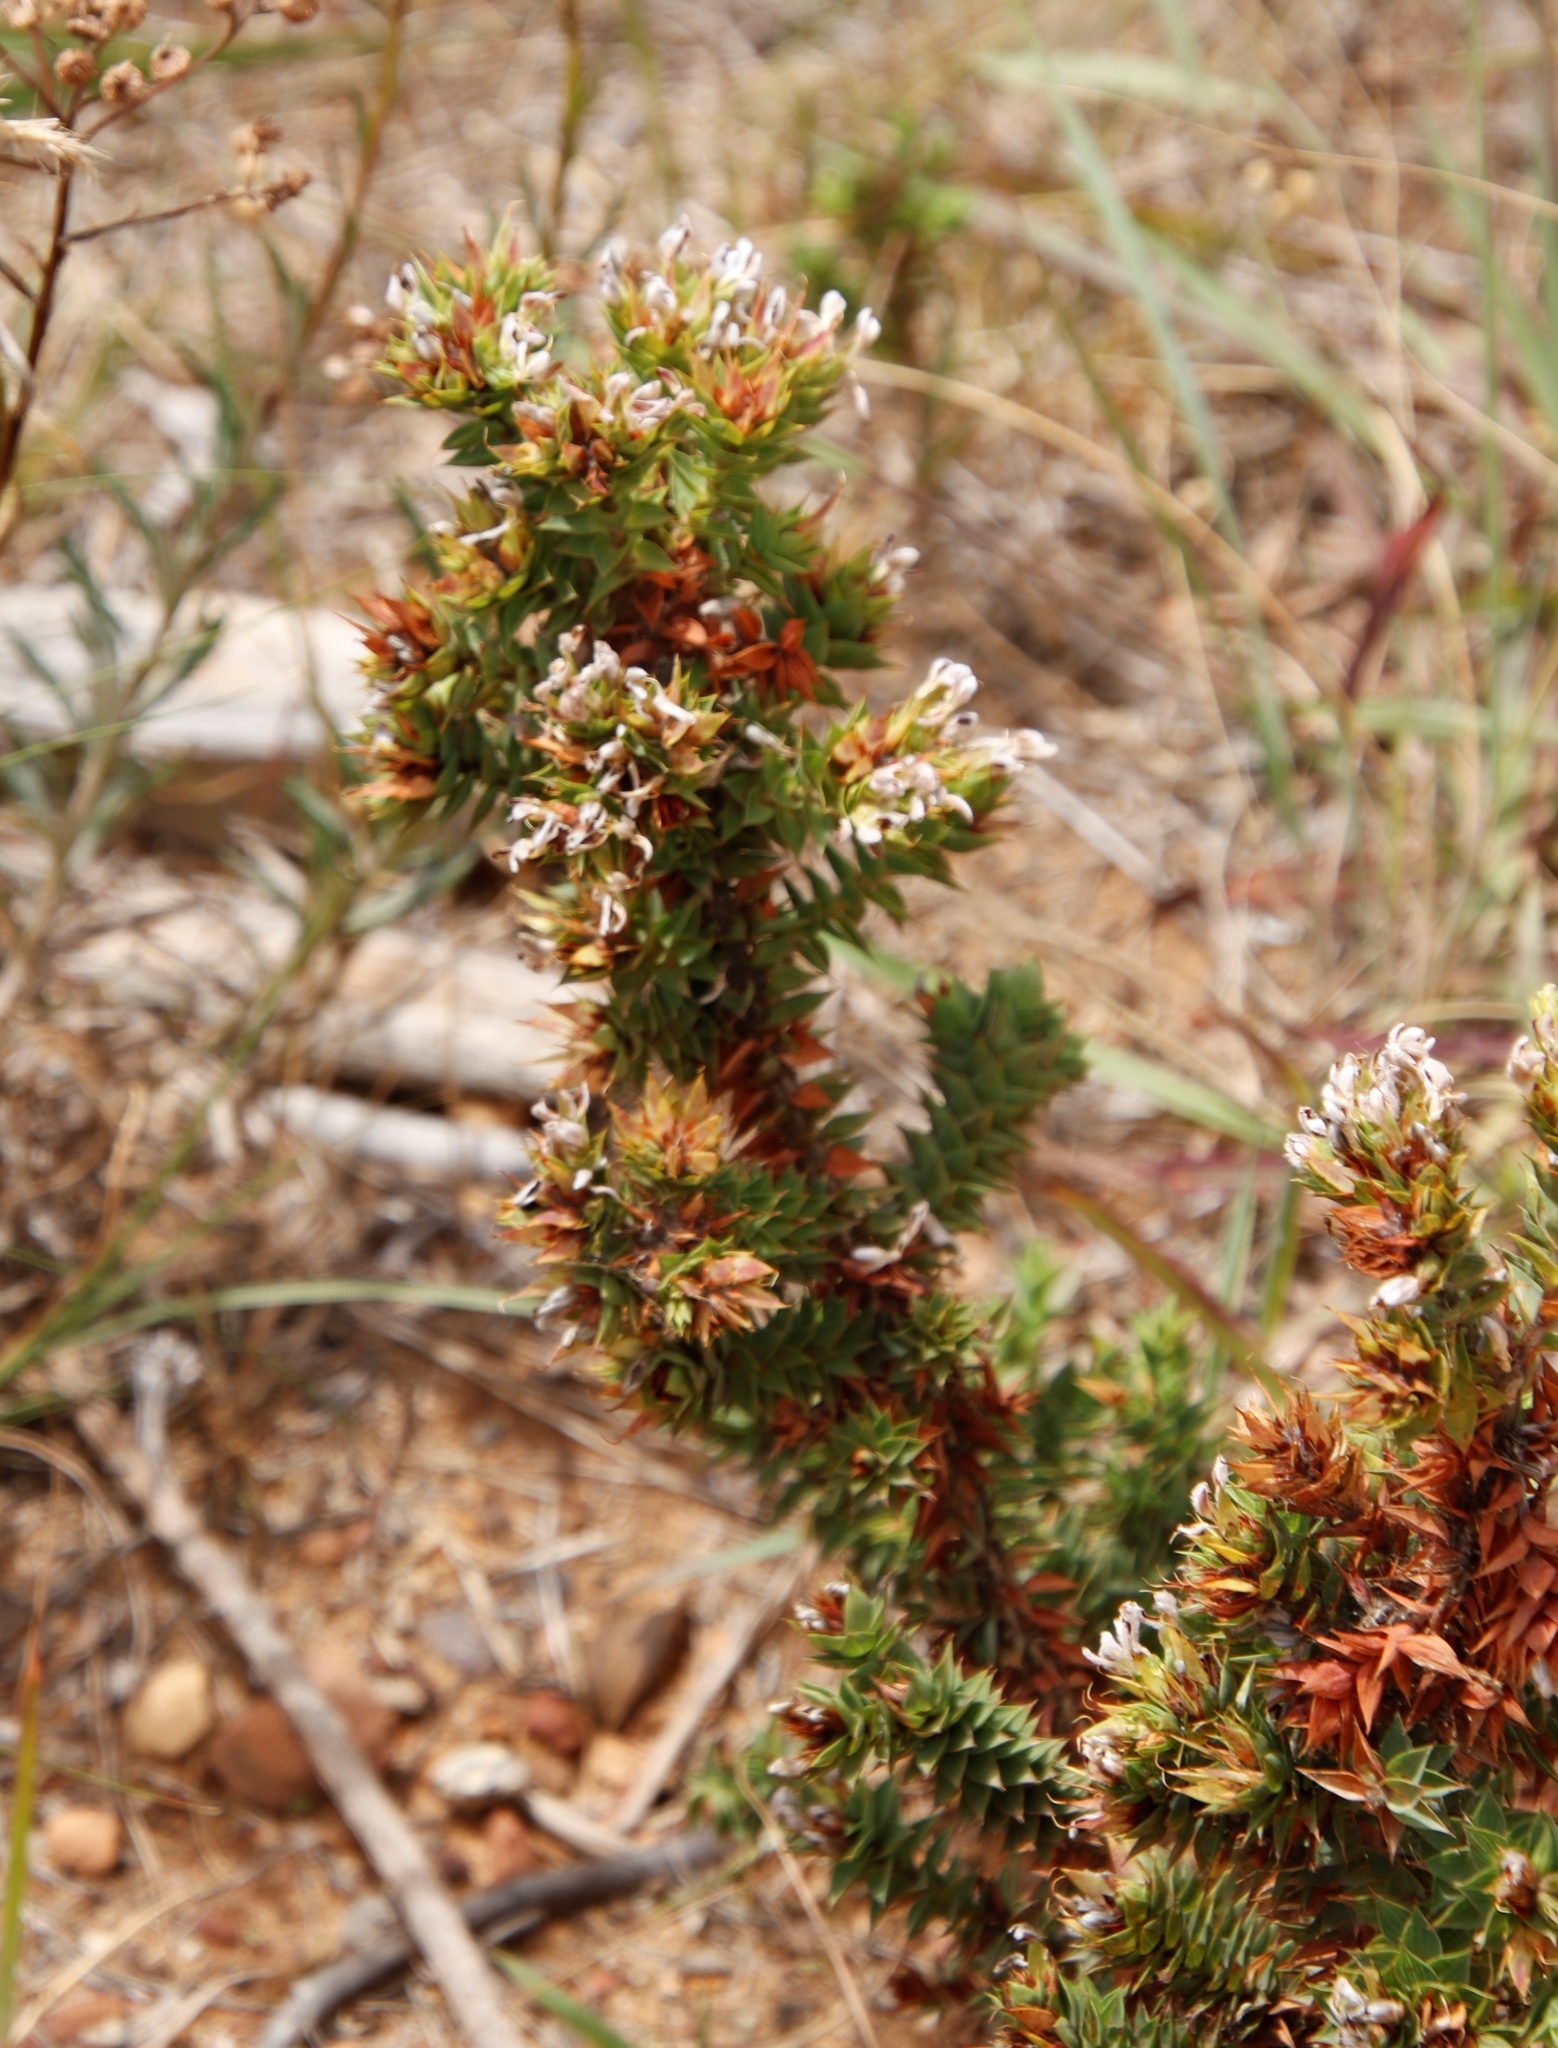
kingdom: Plantae
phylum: Tracheophyta
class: Magnoliopsida
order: Fabales
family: Fabaceae
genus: Aspalathus
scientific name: Aspalathus cordata
